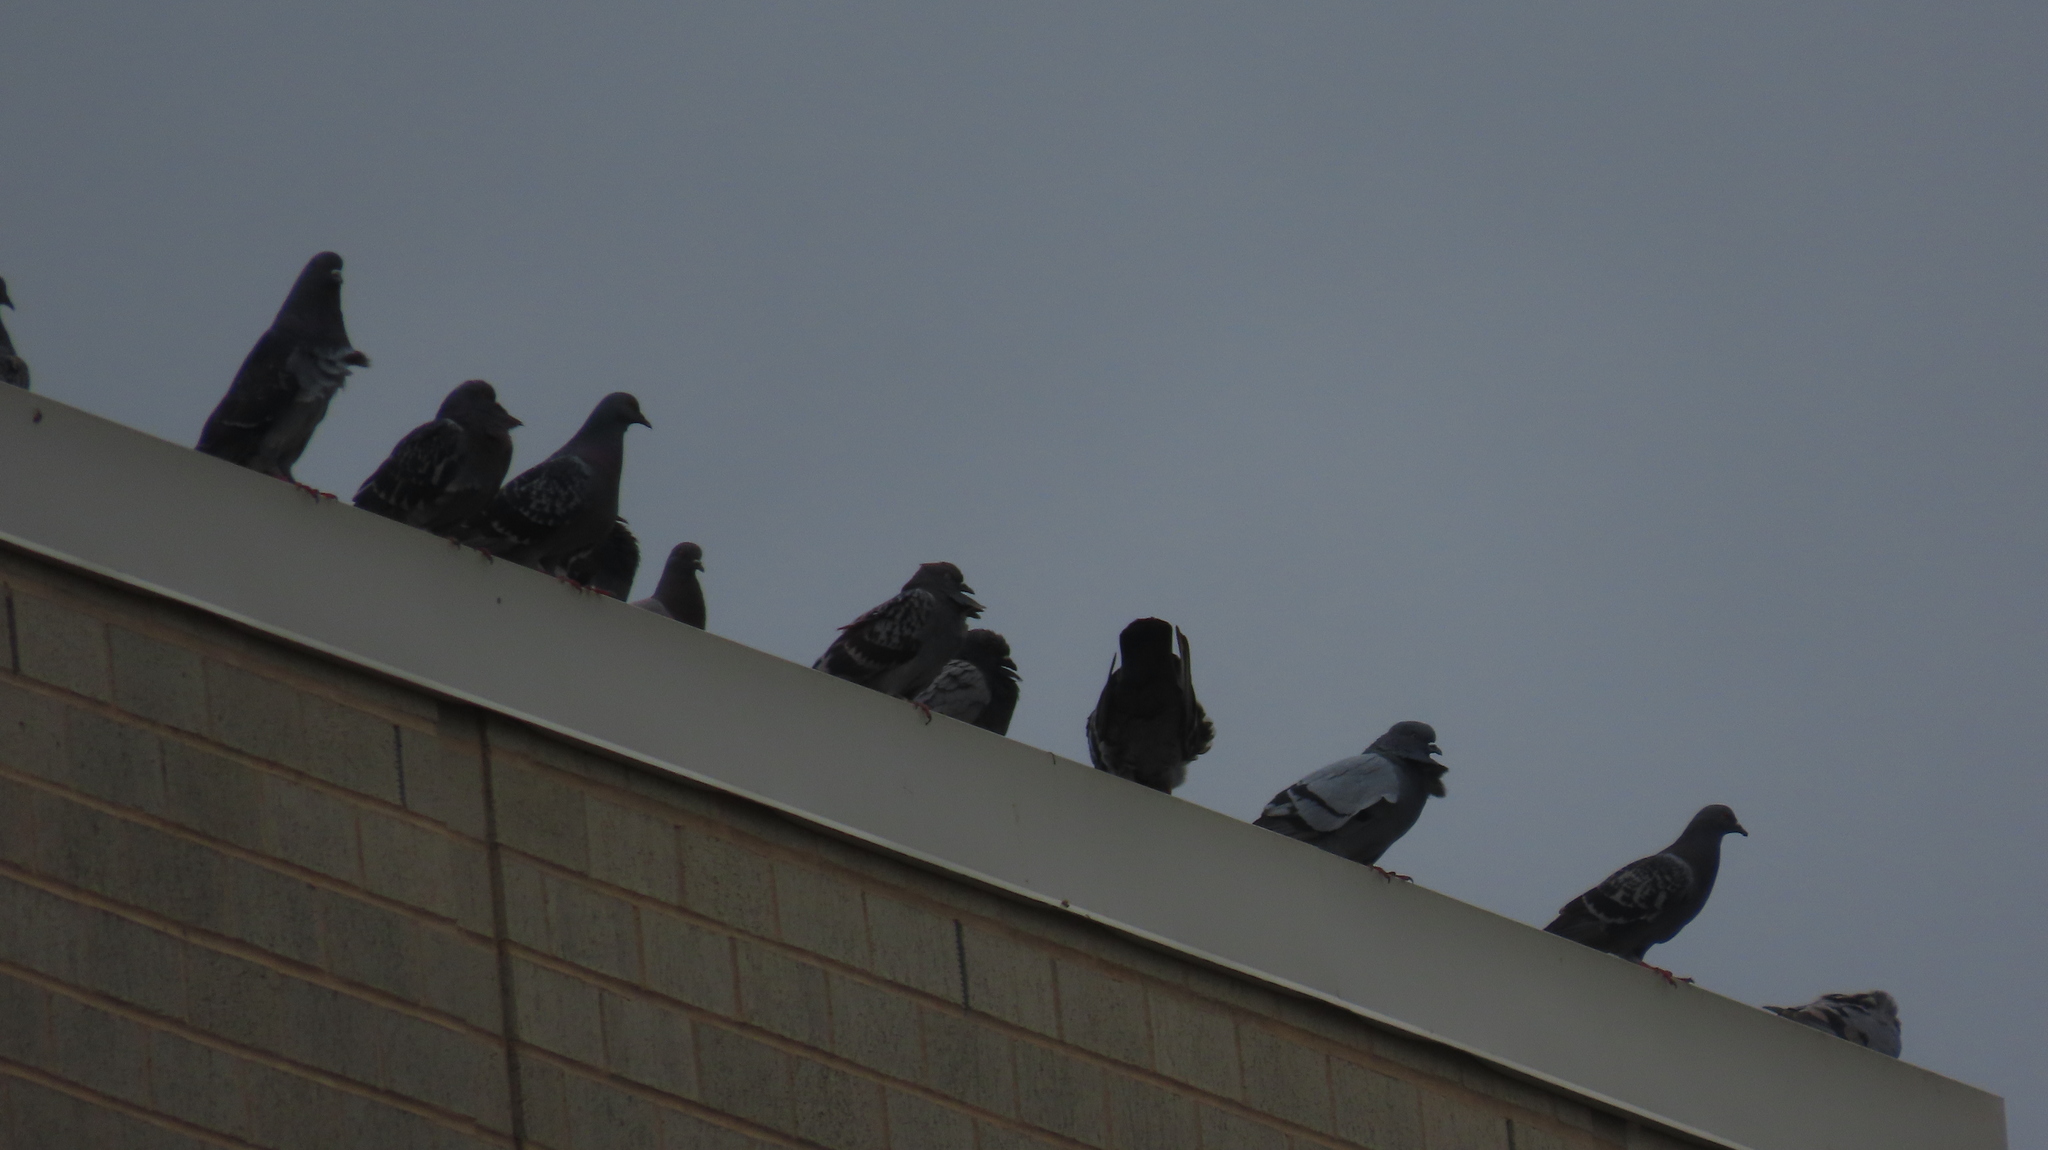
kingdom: Animalia
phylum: Chordata
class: Aves
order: Columbiformes
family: Columbidae
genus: Columba
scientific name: Columba livia
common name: Rock pigeon
